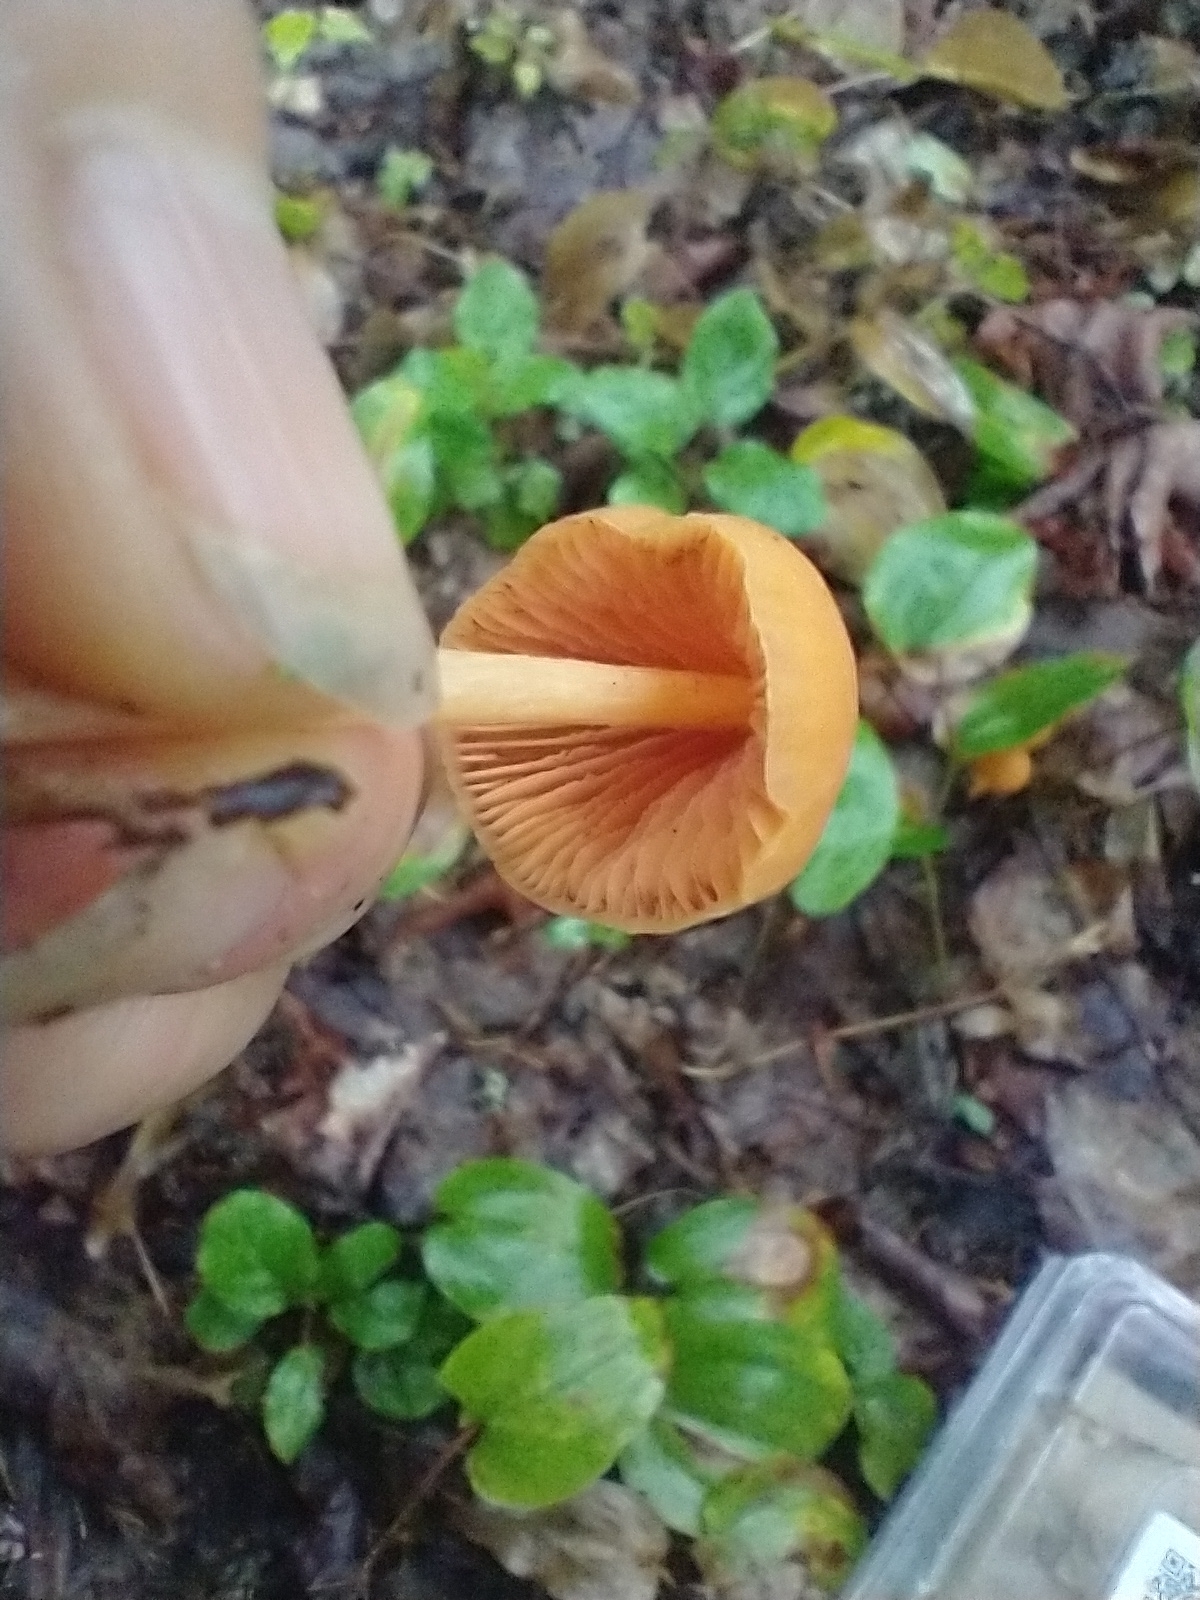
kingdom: Fungi
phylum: Basidiomycota
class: Agaricomycetes
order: Agaricales
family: Entolomataceae
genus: Entoloma
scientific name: Entoloma quadratum
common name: Salmon pinkgill
